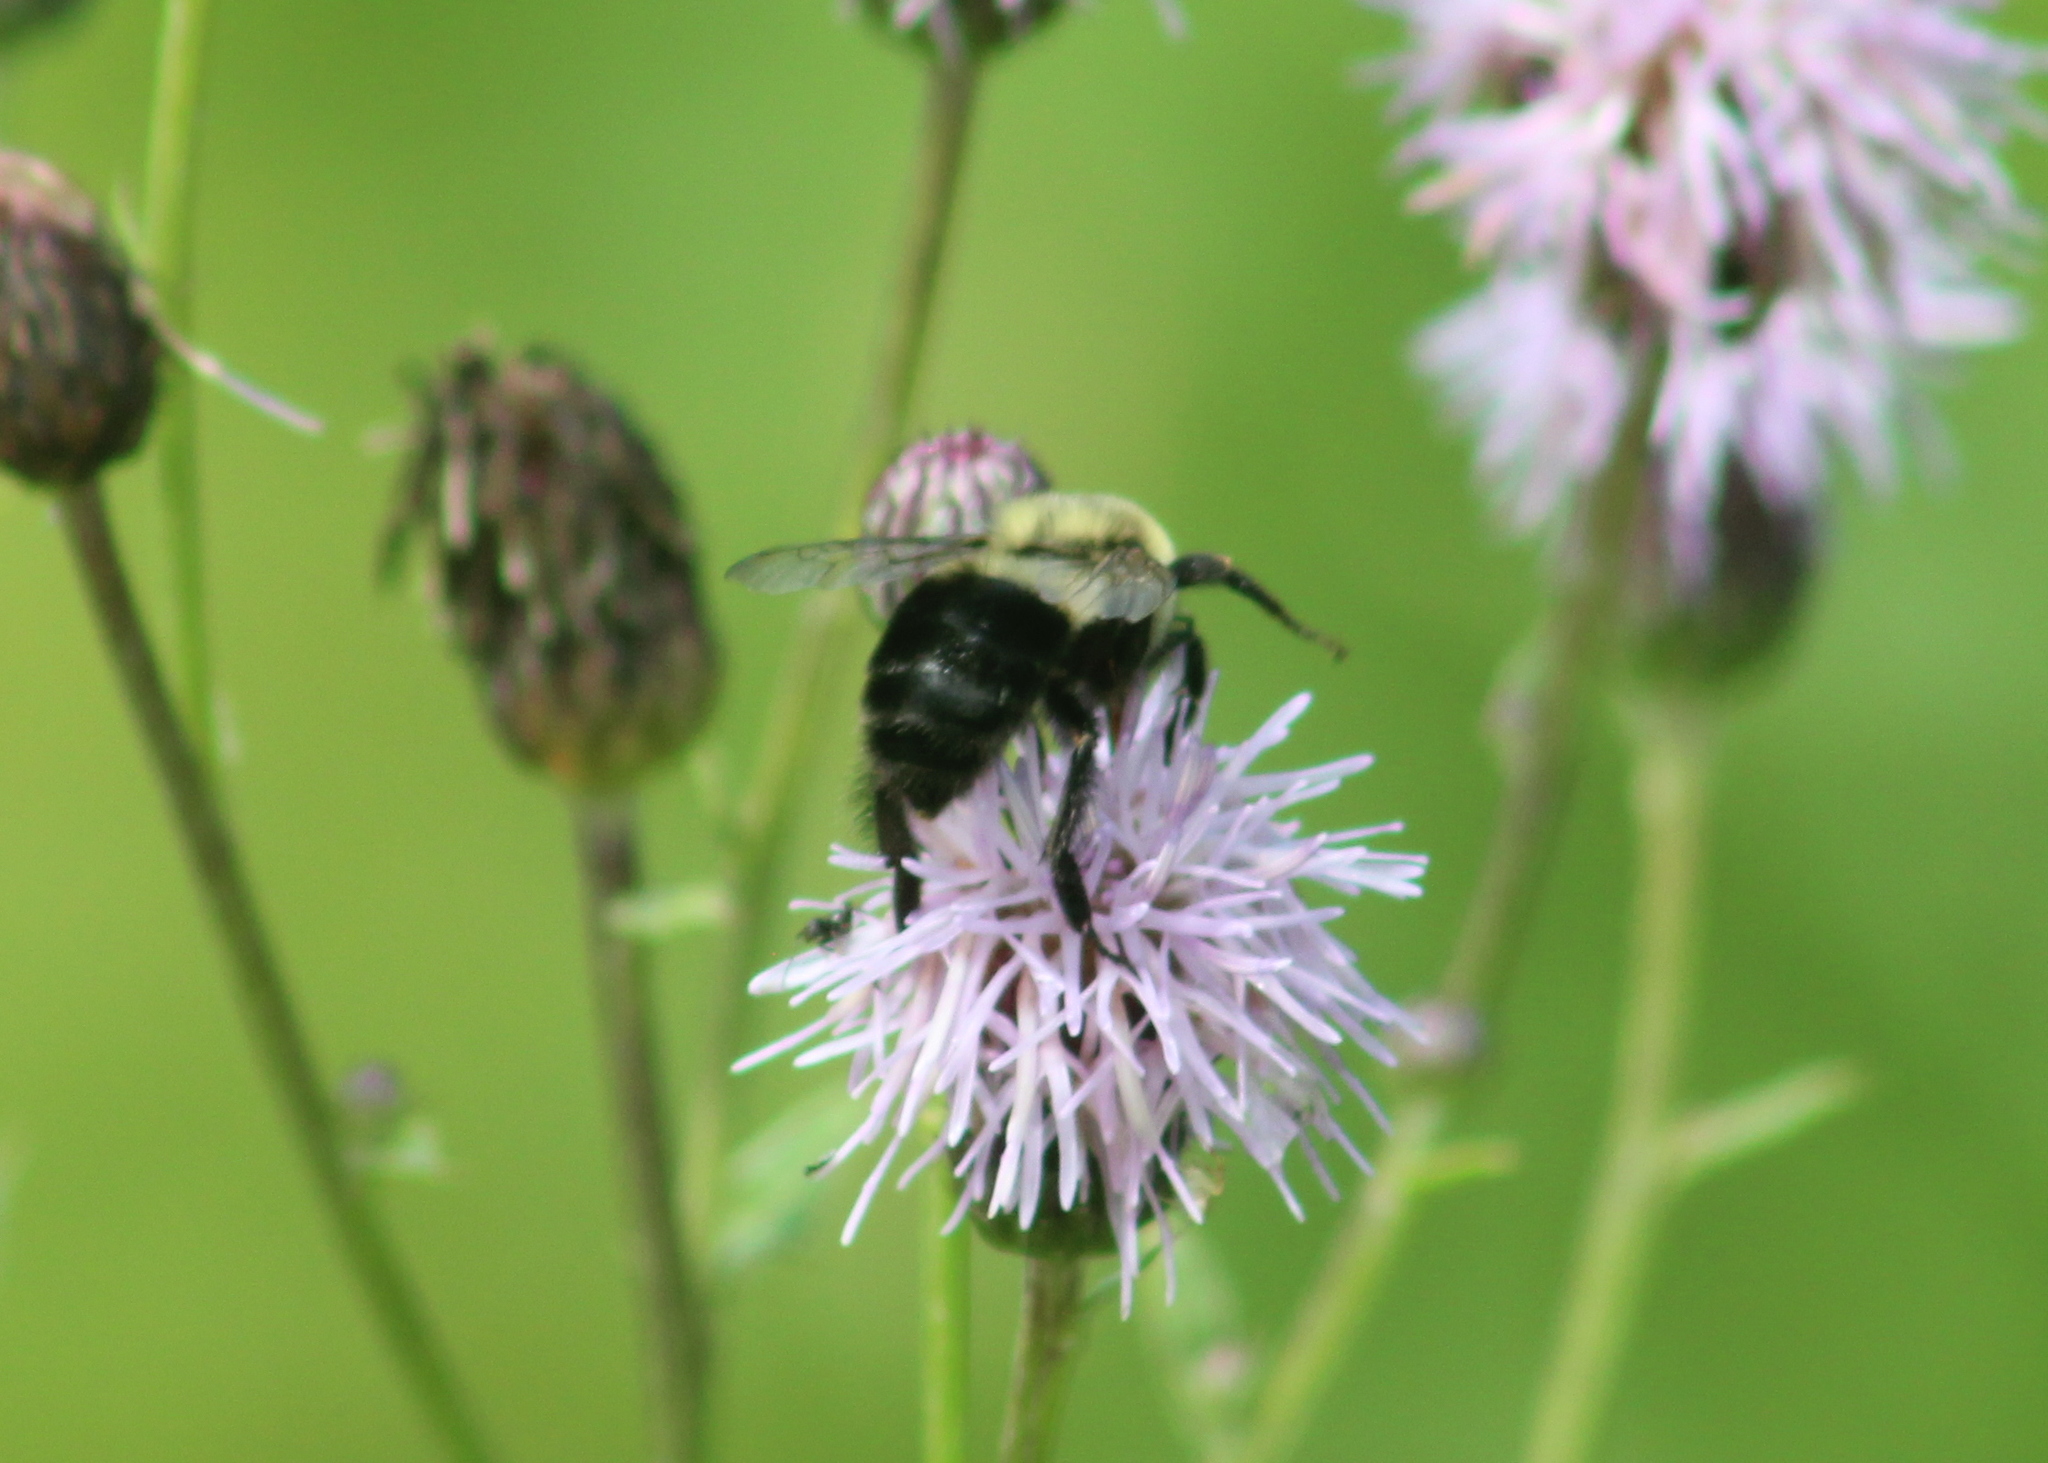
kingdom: Animalia
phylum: Arthropoda
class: Insecta
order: Hymenoptera
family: Apidae
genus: Bombus
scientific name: Bombus impatiens
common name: Common eastern bumble bee
